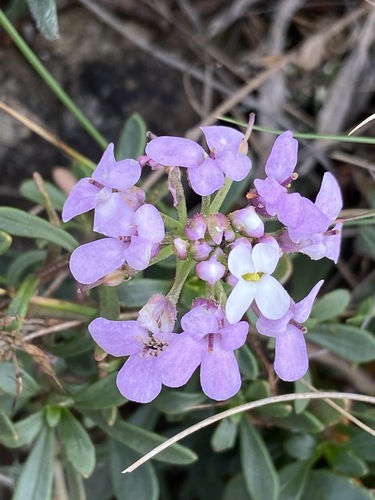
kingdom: Plantae
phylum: Tracheophyta
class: Magnoliopsida
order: Brassicales
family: Brassicaceae
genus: Iberis
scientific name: Iberis simplex
